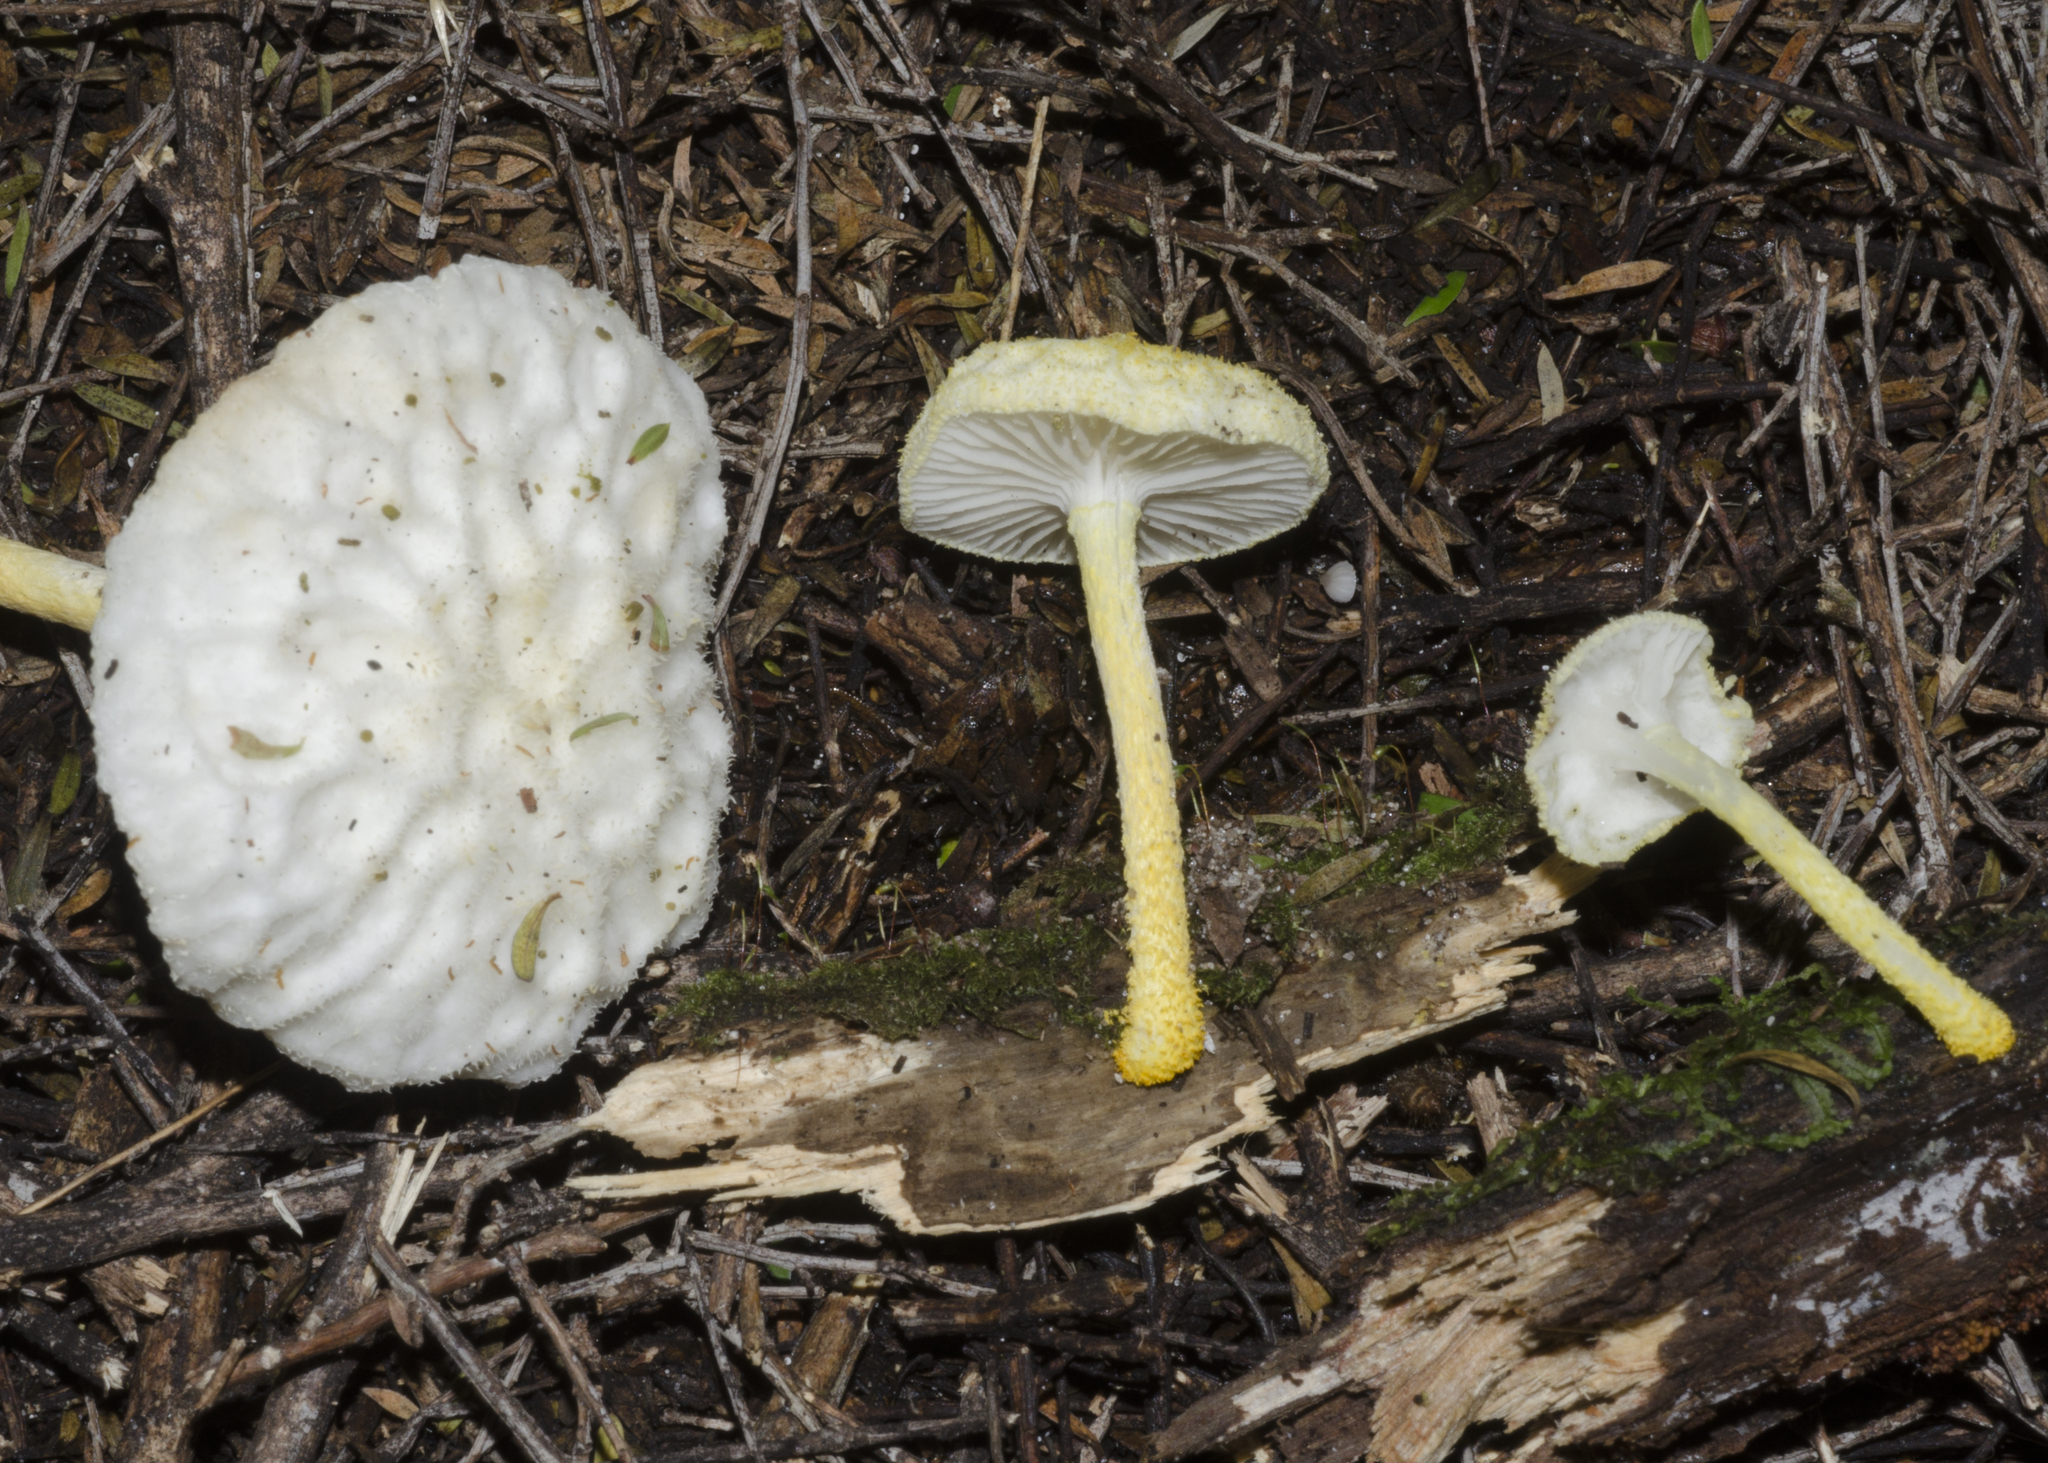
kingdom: Fungi
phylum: Basidiomycota
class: Agaricomycetes
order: Agaricales
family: Physalacriaceae
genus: Cyptotrama
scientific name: Cyptotrama
